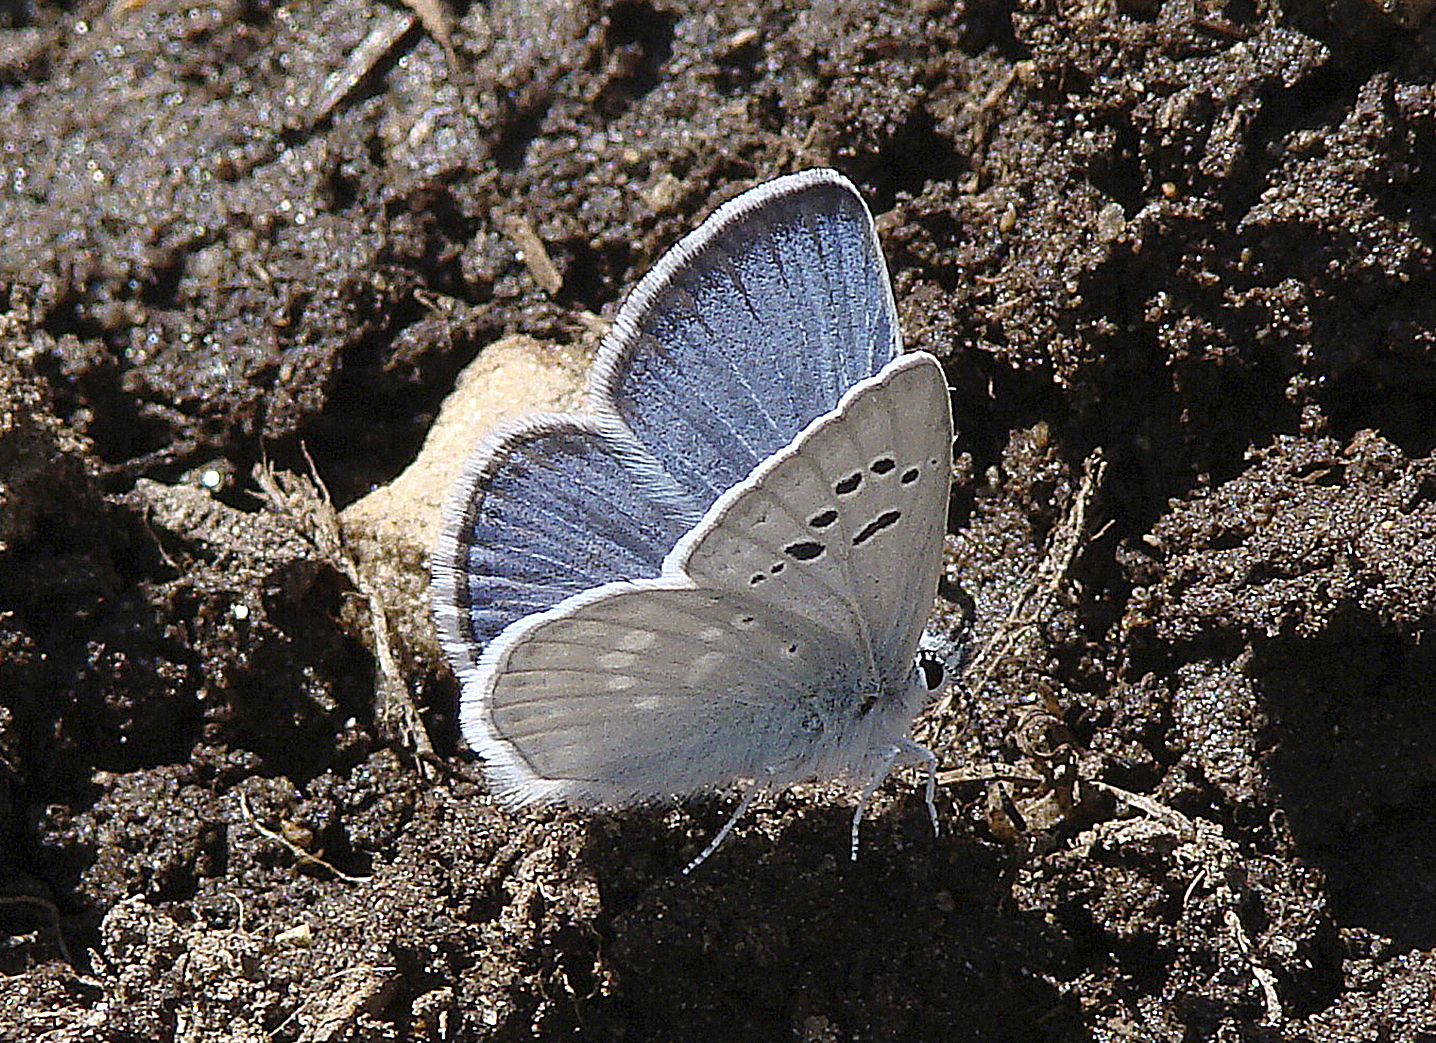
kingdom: Animalia
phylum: Arthropoda
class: Insecta
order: Lepidoptera
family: Lycaenidae
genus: Icaricia
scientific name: Icaricia icarioides
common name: Boisduval's blue
